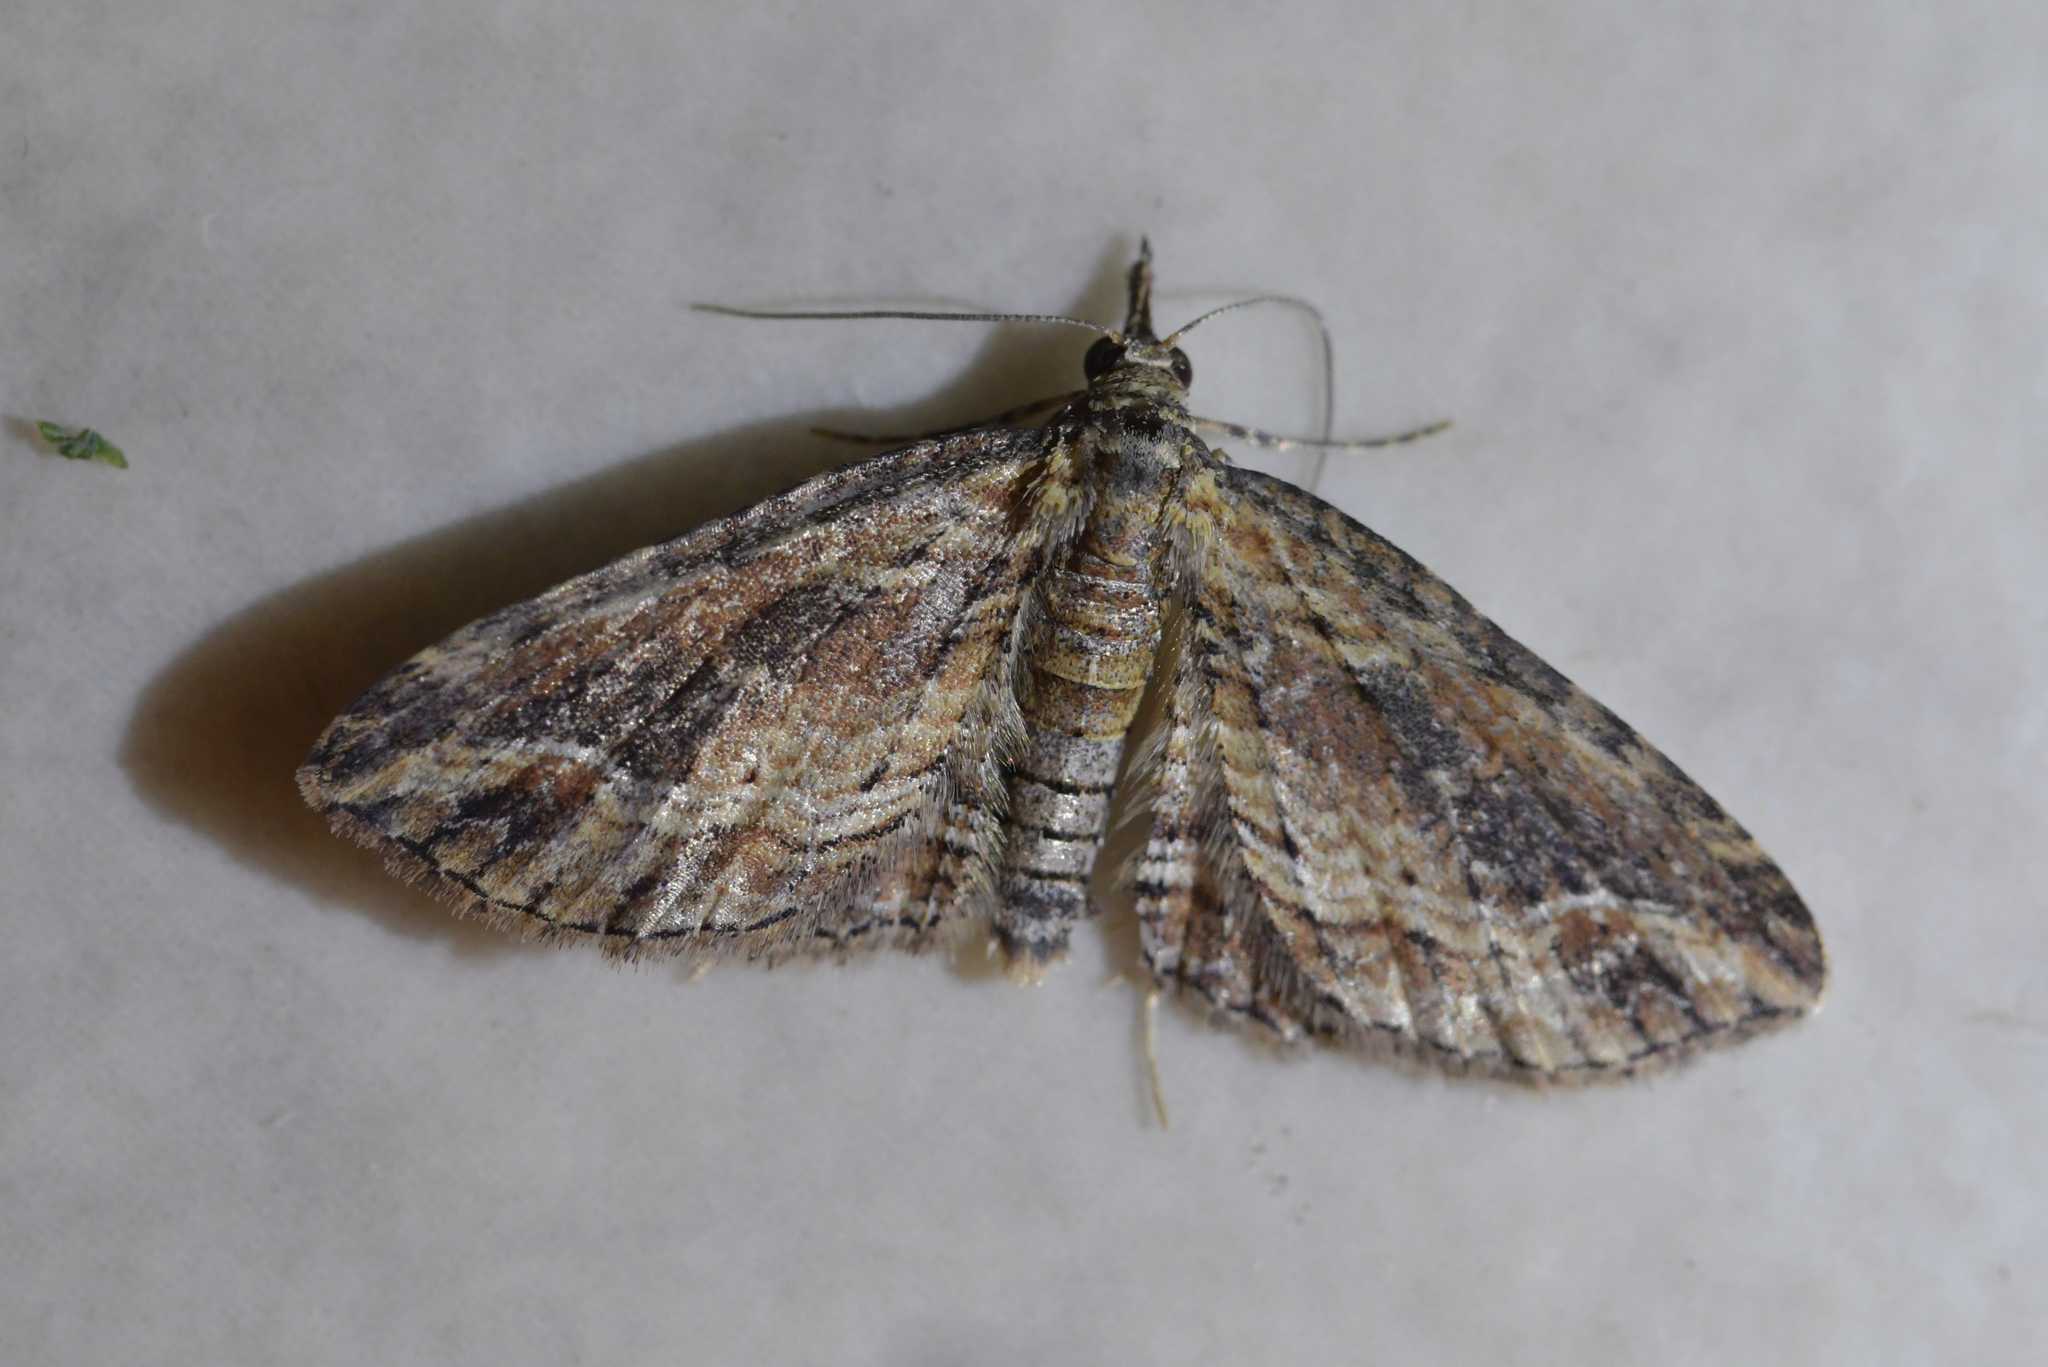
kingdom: Animalia
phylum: Arthropoda
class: Insecta
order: Lepidoptera
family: Geometridae
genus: Chloroclystis
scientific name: Chloroclystis filata
